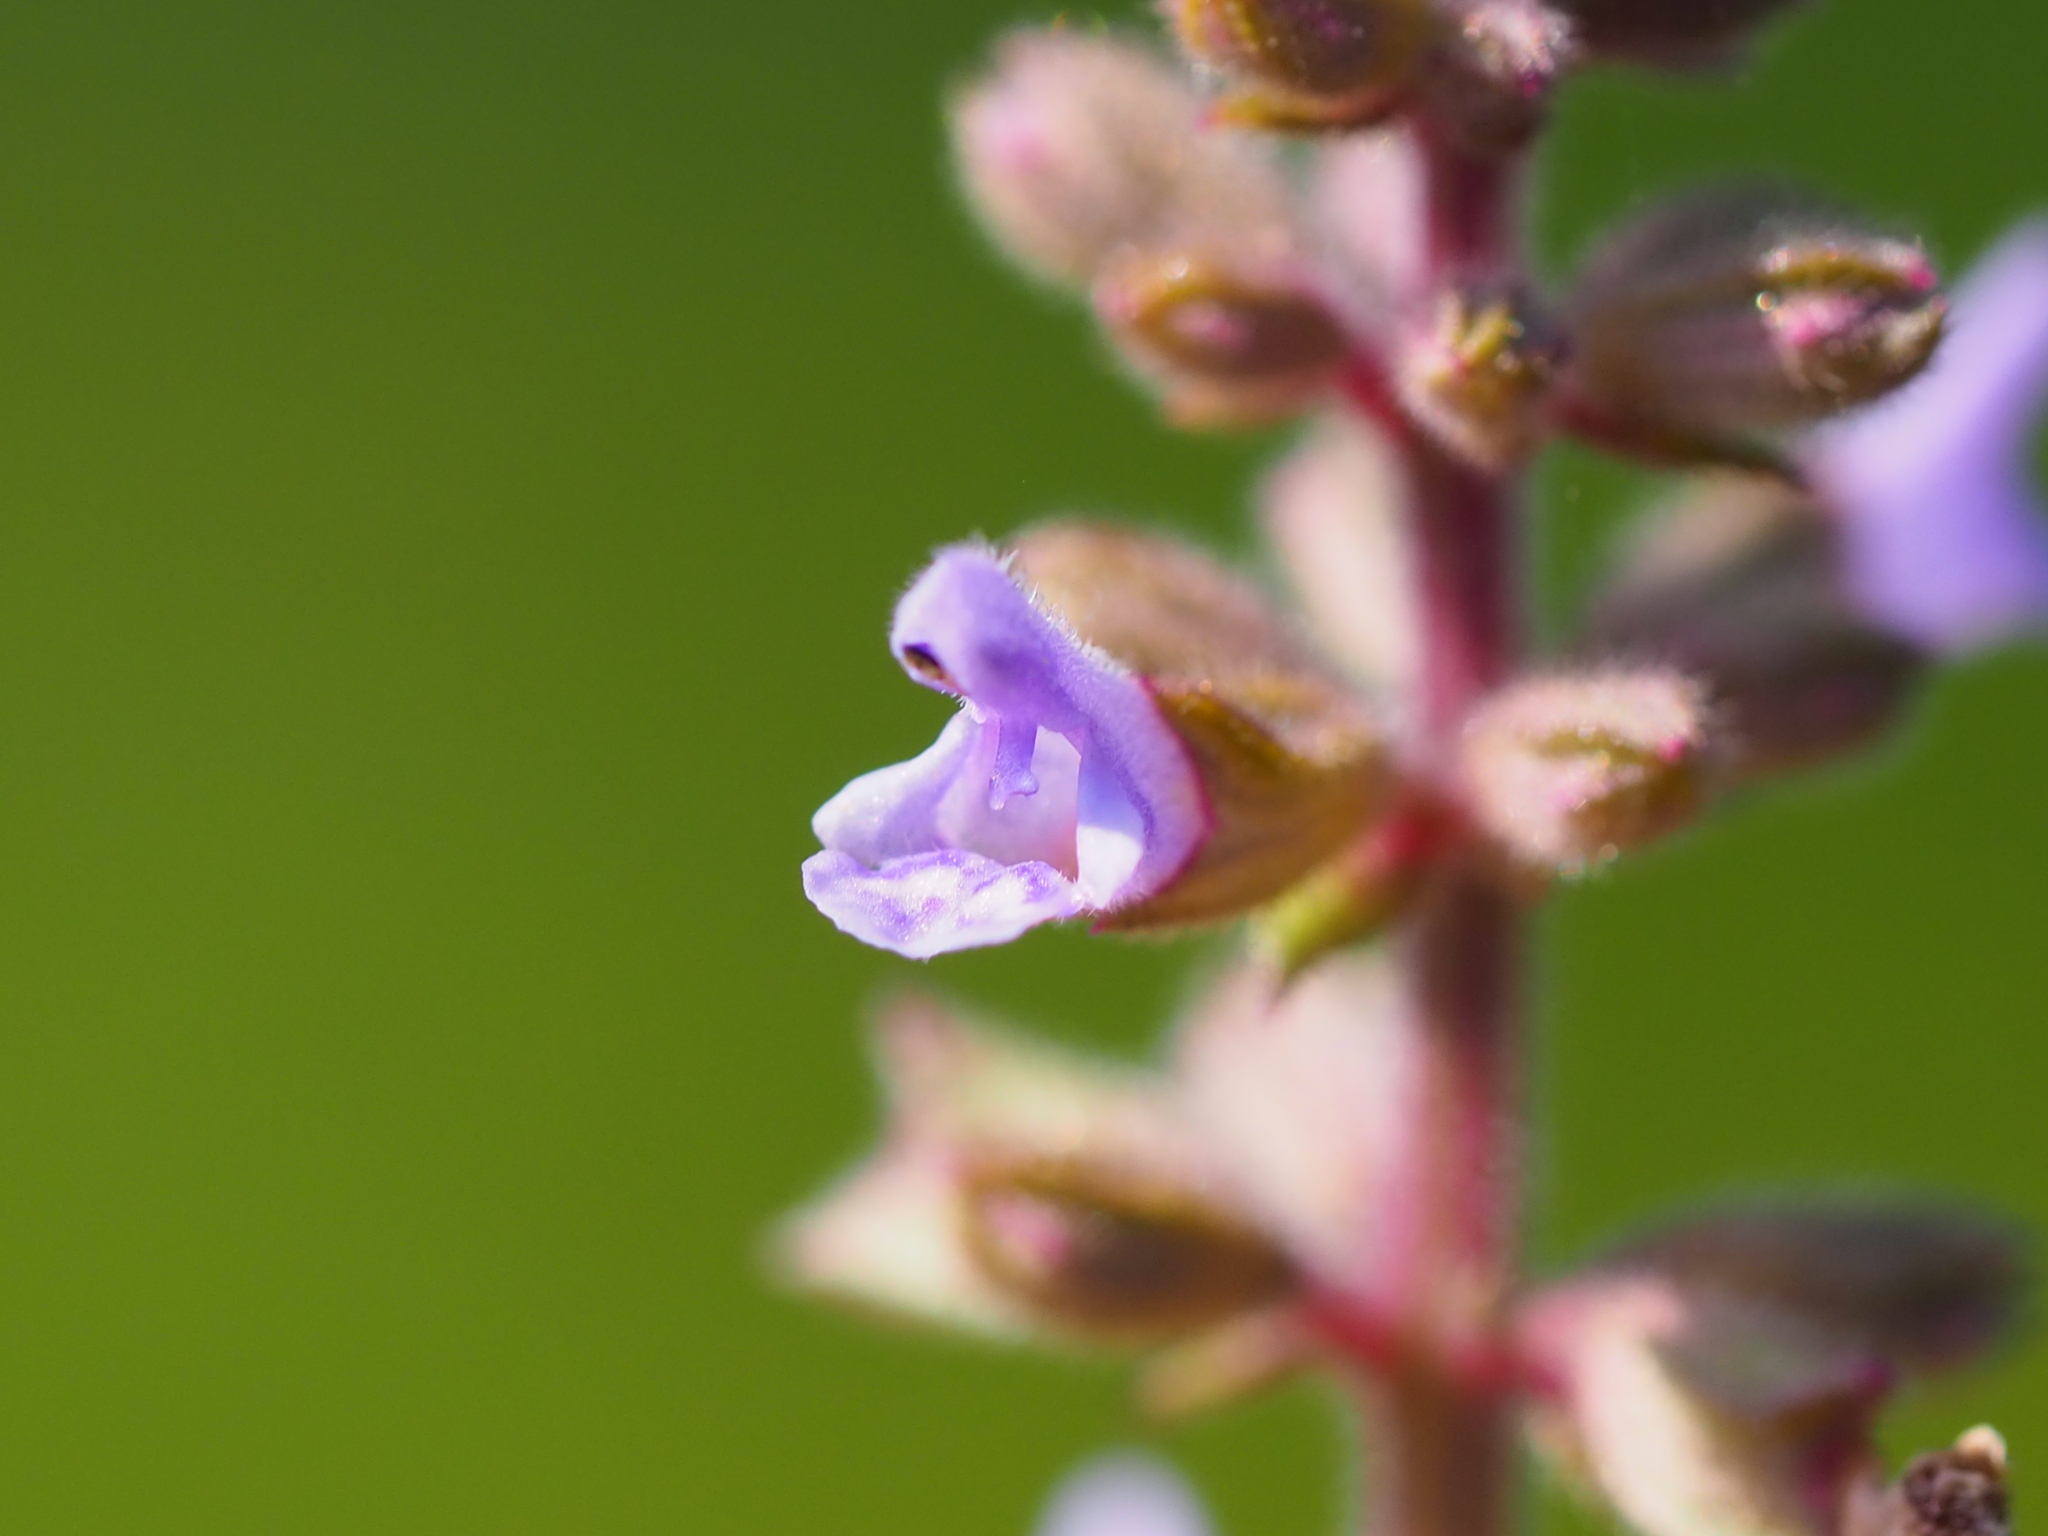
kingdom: Plantae
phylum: Tracheophyta
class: Magnoliopsida
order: Lamiales
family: Lamiaceae
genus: Salvia
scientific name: Salvia plebeia
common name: Australian sage
